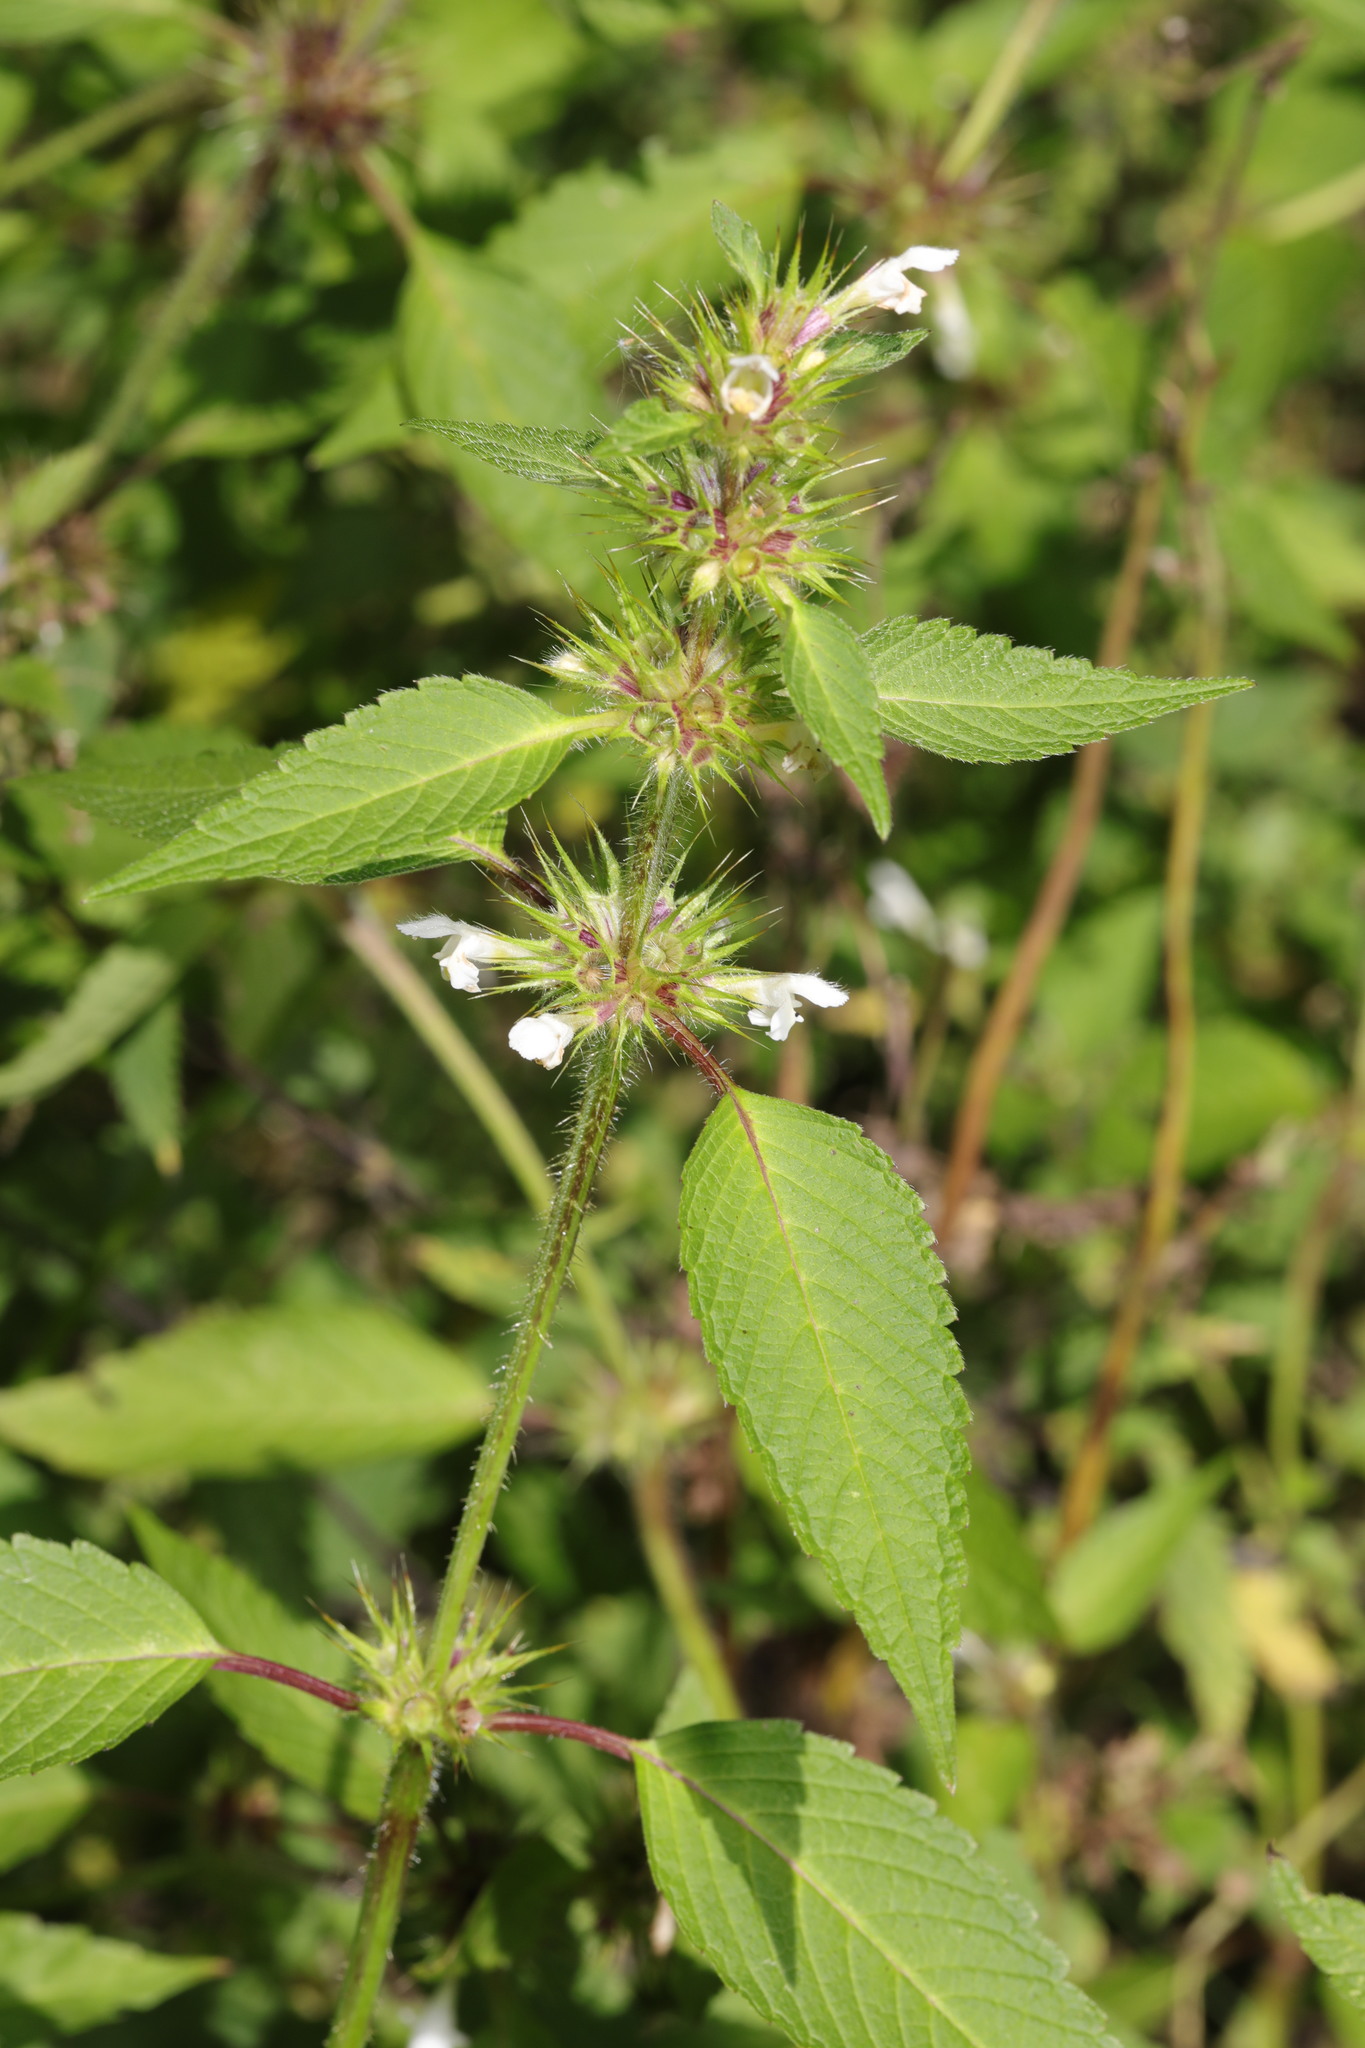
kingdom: Plantae
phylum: Tracheophyta
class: Magnoliopsida
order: Lamiales
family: Lamiaceae
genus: Galeopsis
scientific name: Galeopsis tetrahit
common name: Common hemp-nettle
